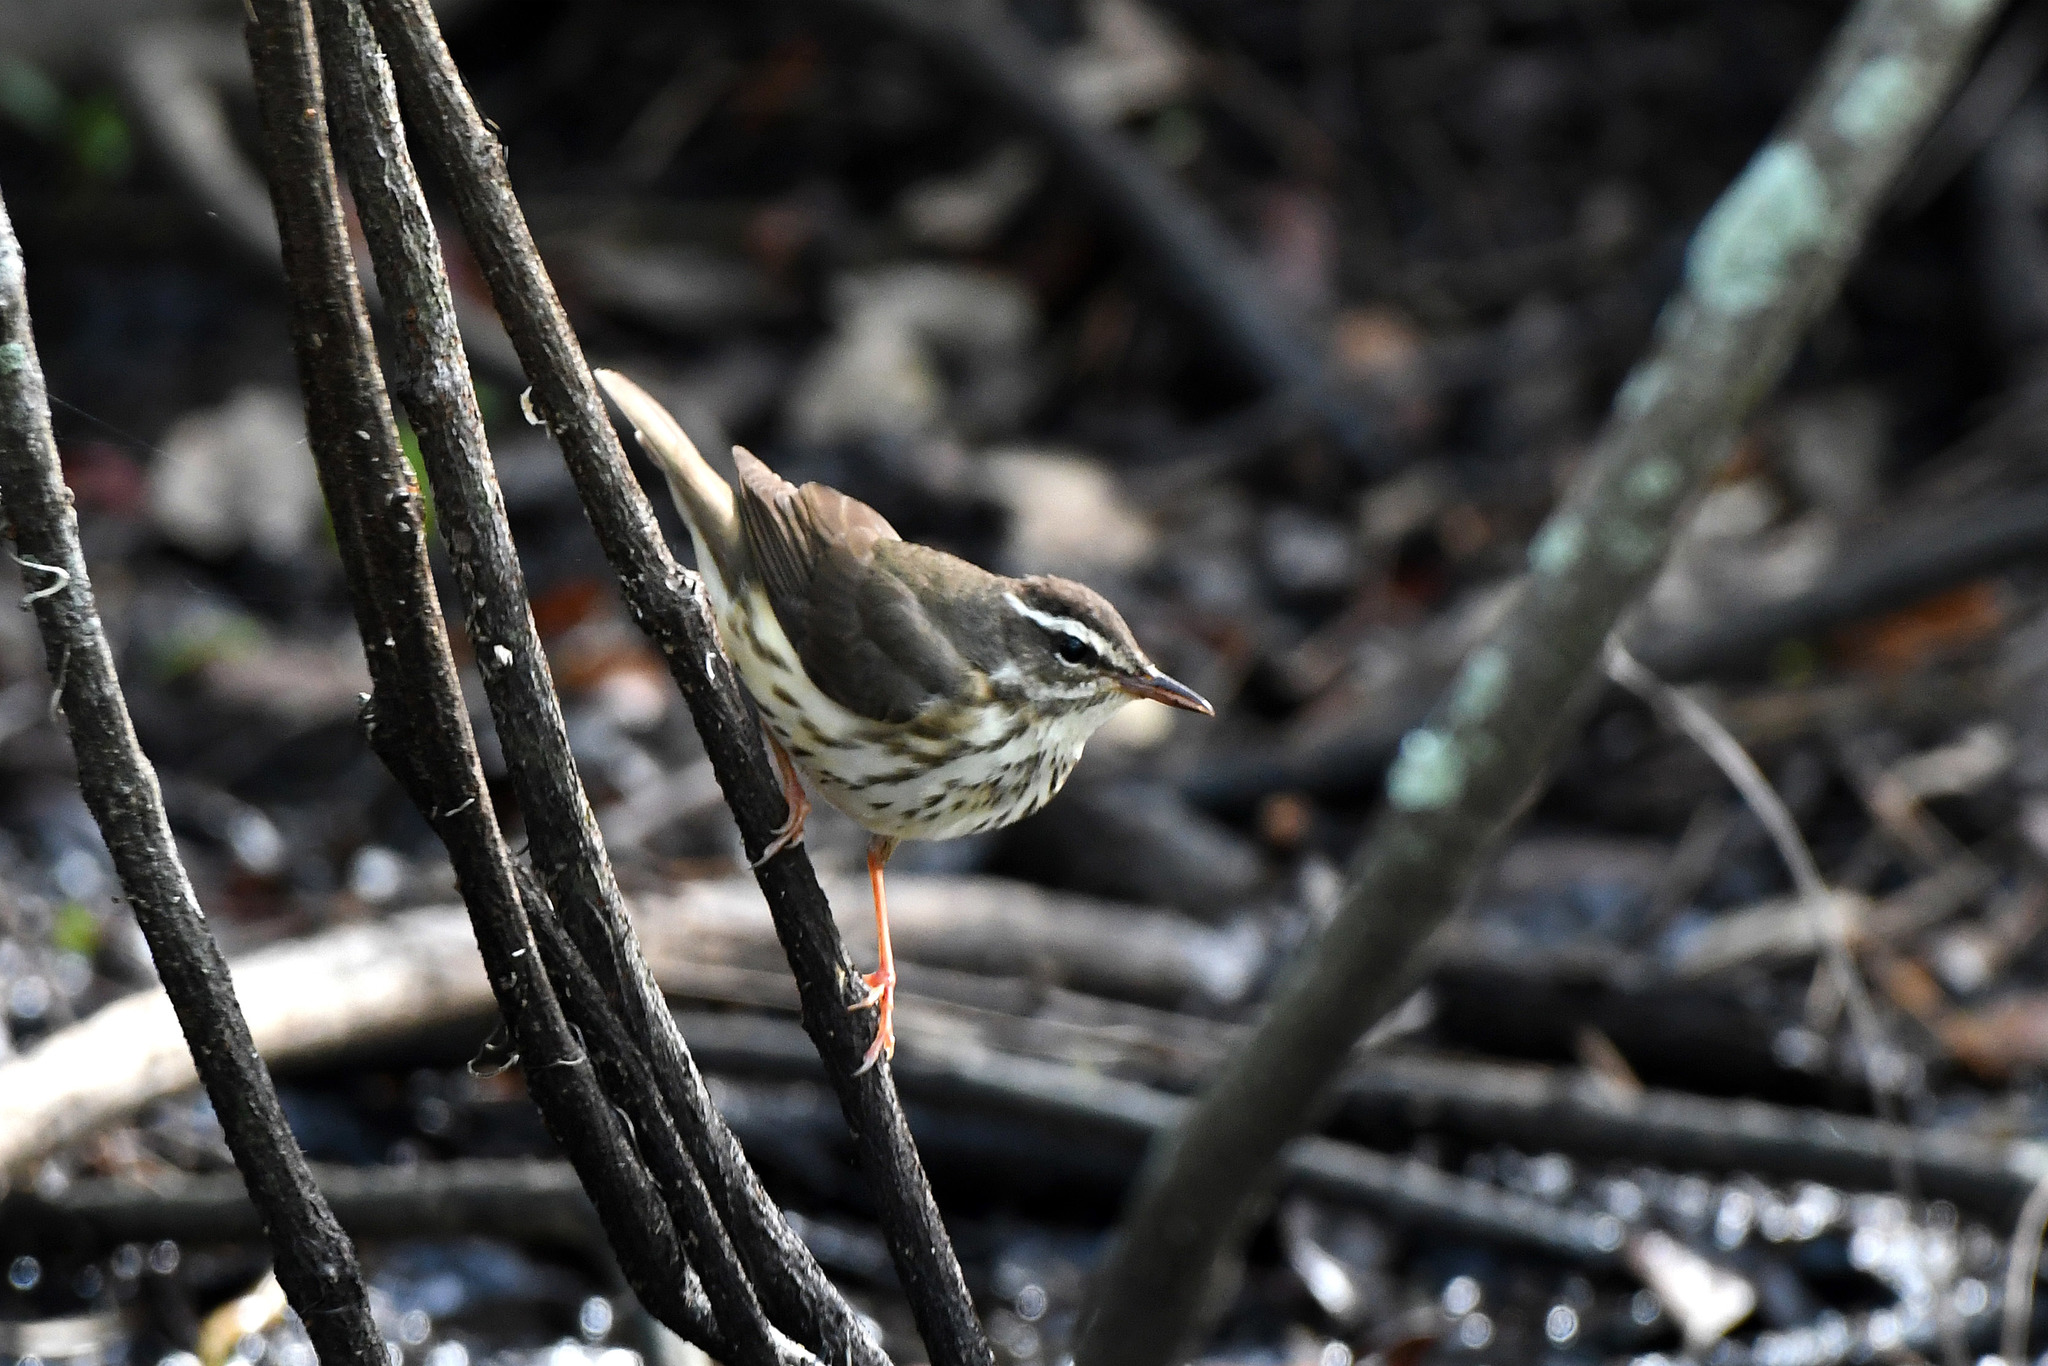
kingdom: Animalia
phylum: Chordata
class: Aves
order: Passeriformes
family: Parulidae
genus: Parkesia
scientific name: Parkesia motacilla
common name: Louisiana waterthrush
